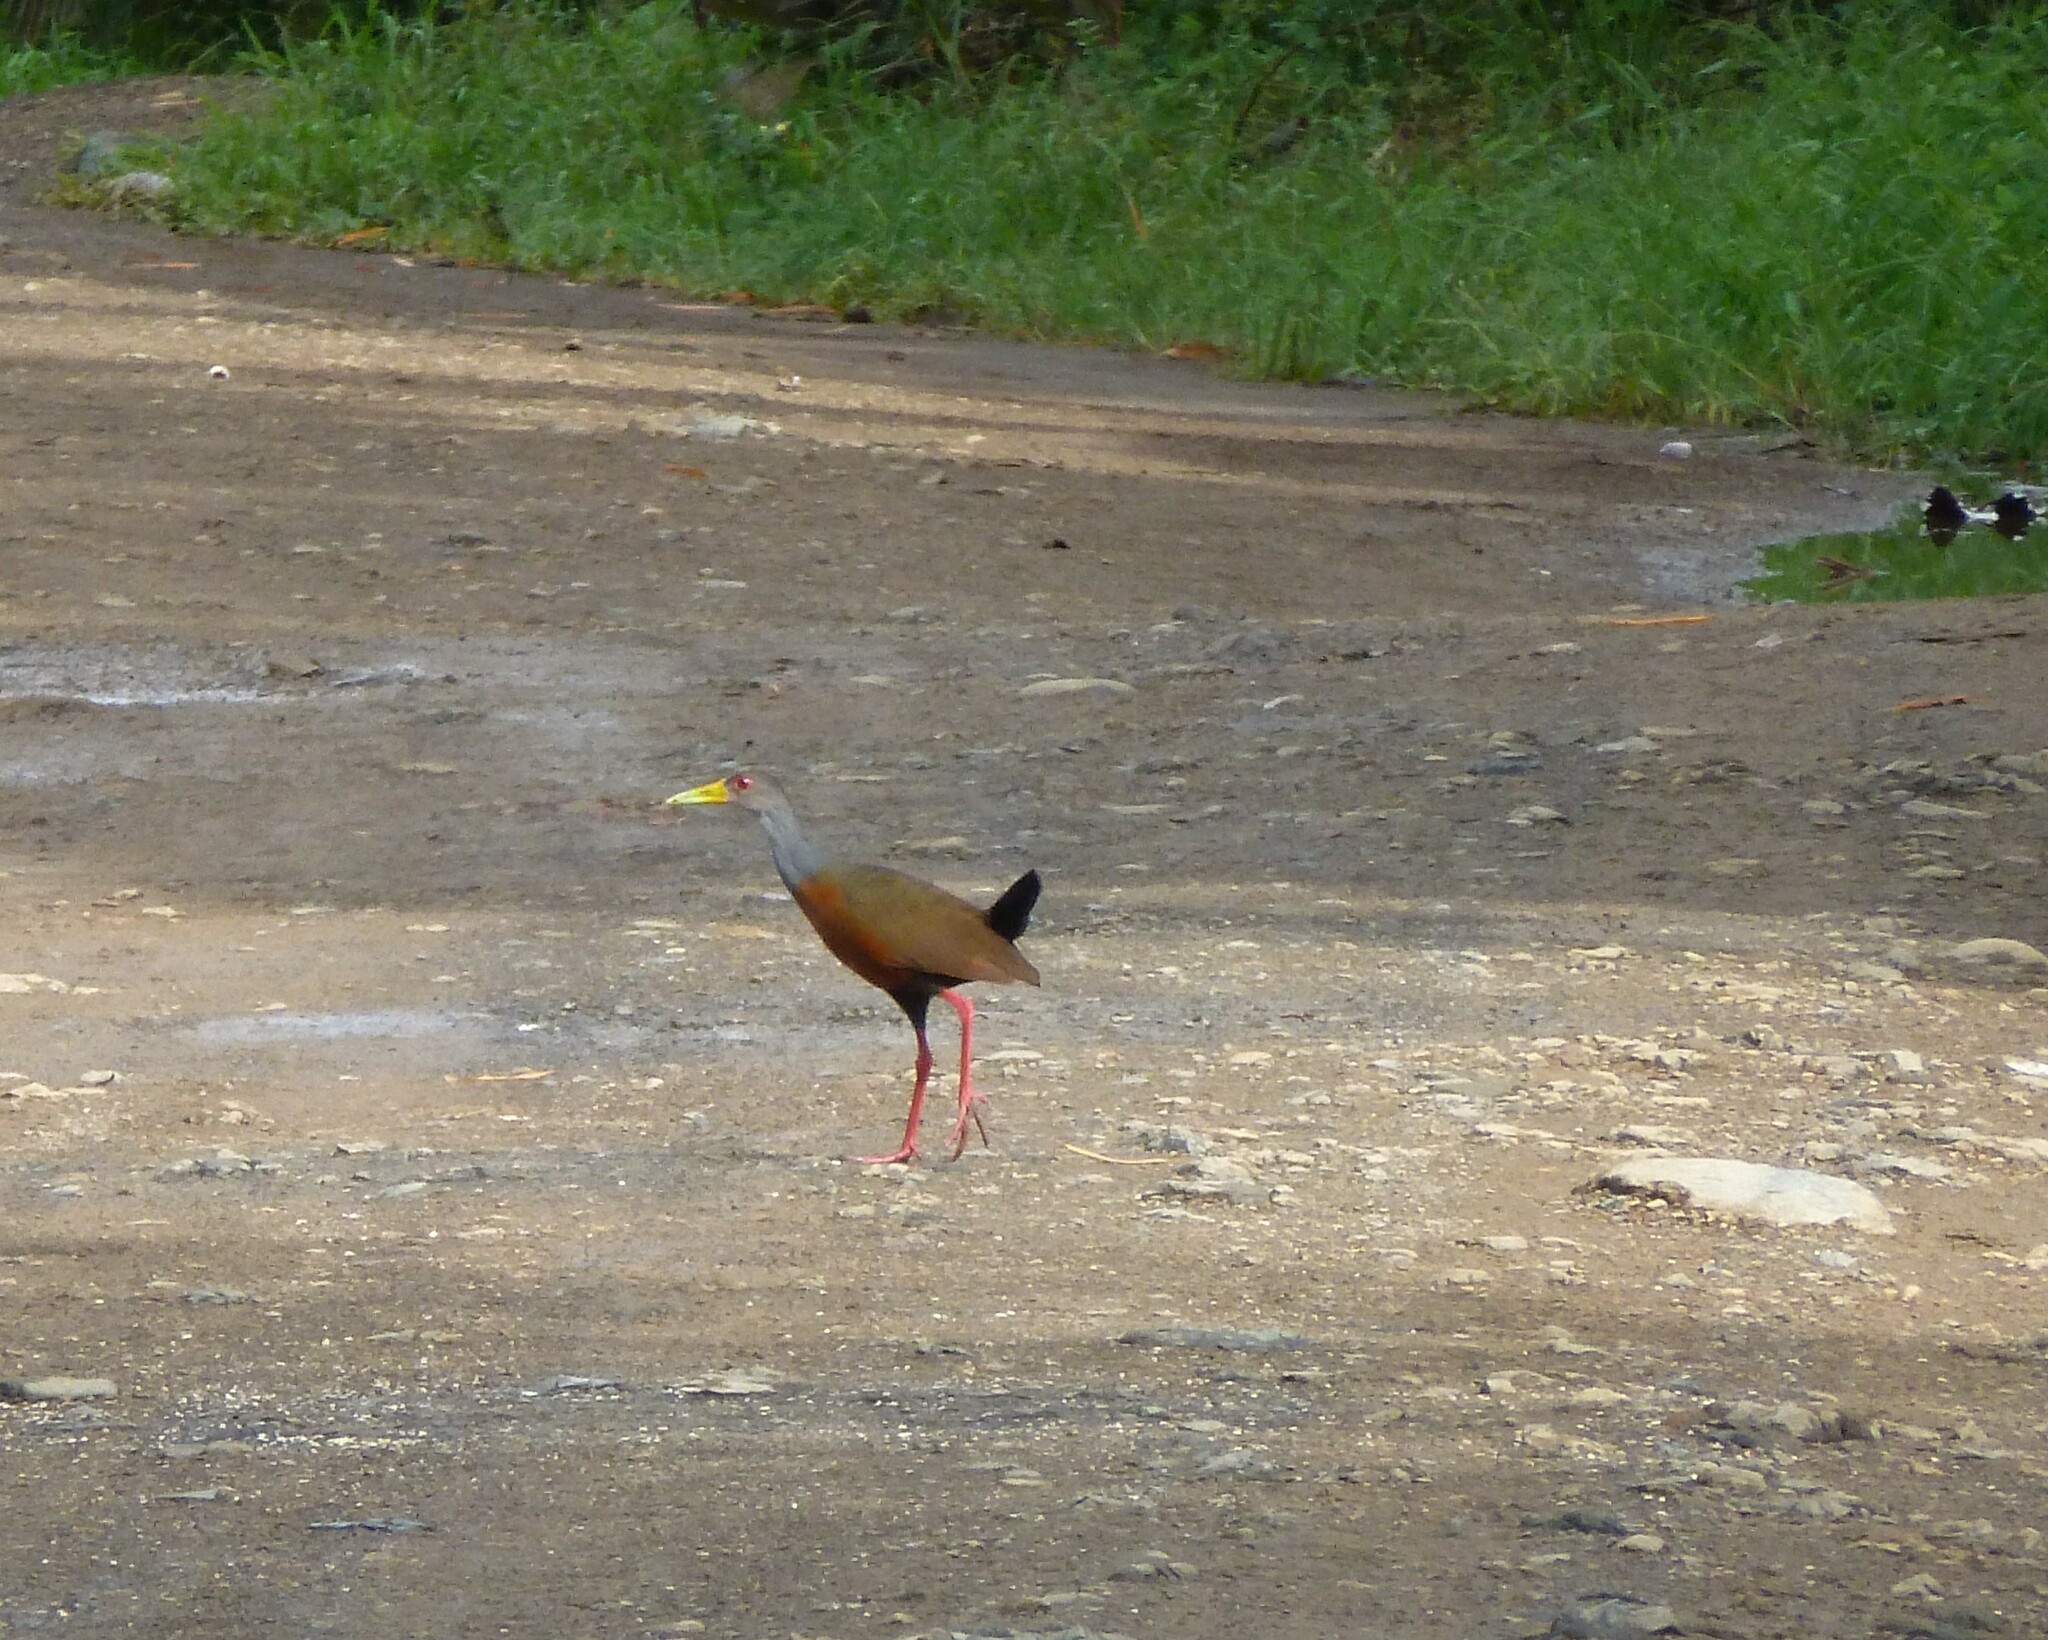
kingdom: Animalia
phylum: Chordata
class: Aves
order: Gruiformes
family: Rallidae
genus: Aramides
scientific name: Aramides cajanea
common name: Gray-necked wood-rail
